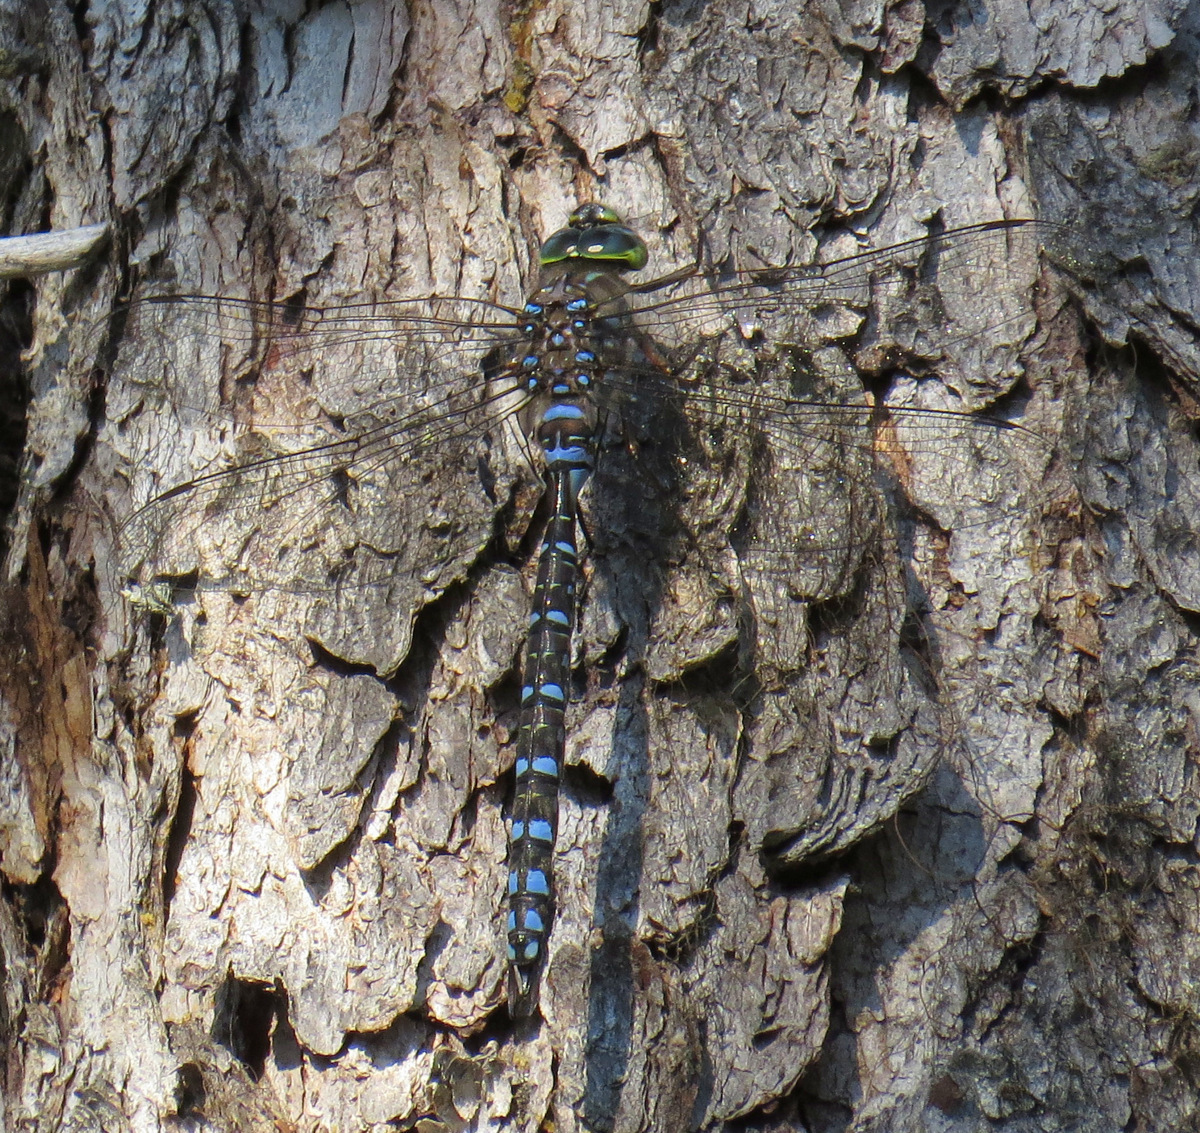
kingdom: Animalia
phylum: Arthropoda
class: Insecta
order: Odonata
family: Aeshnidae
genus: Aeshna
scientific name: Aeshna eremita
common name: Lake darner
